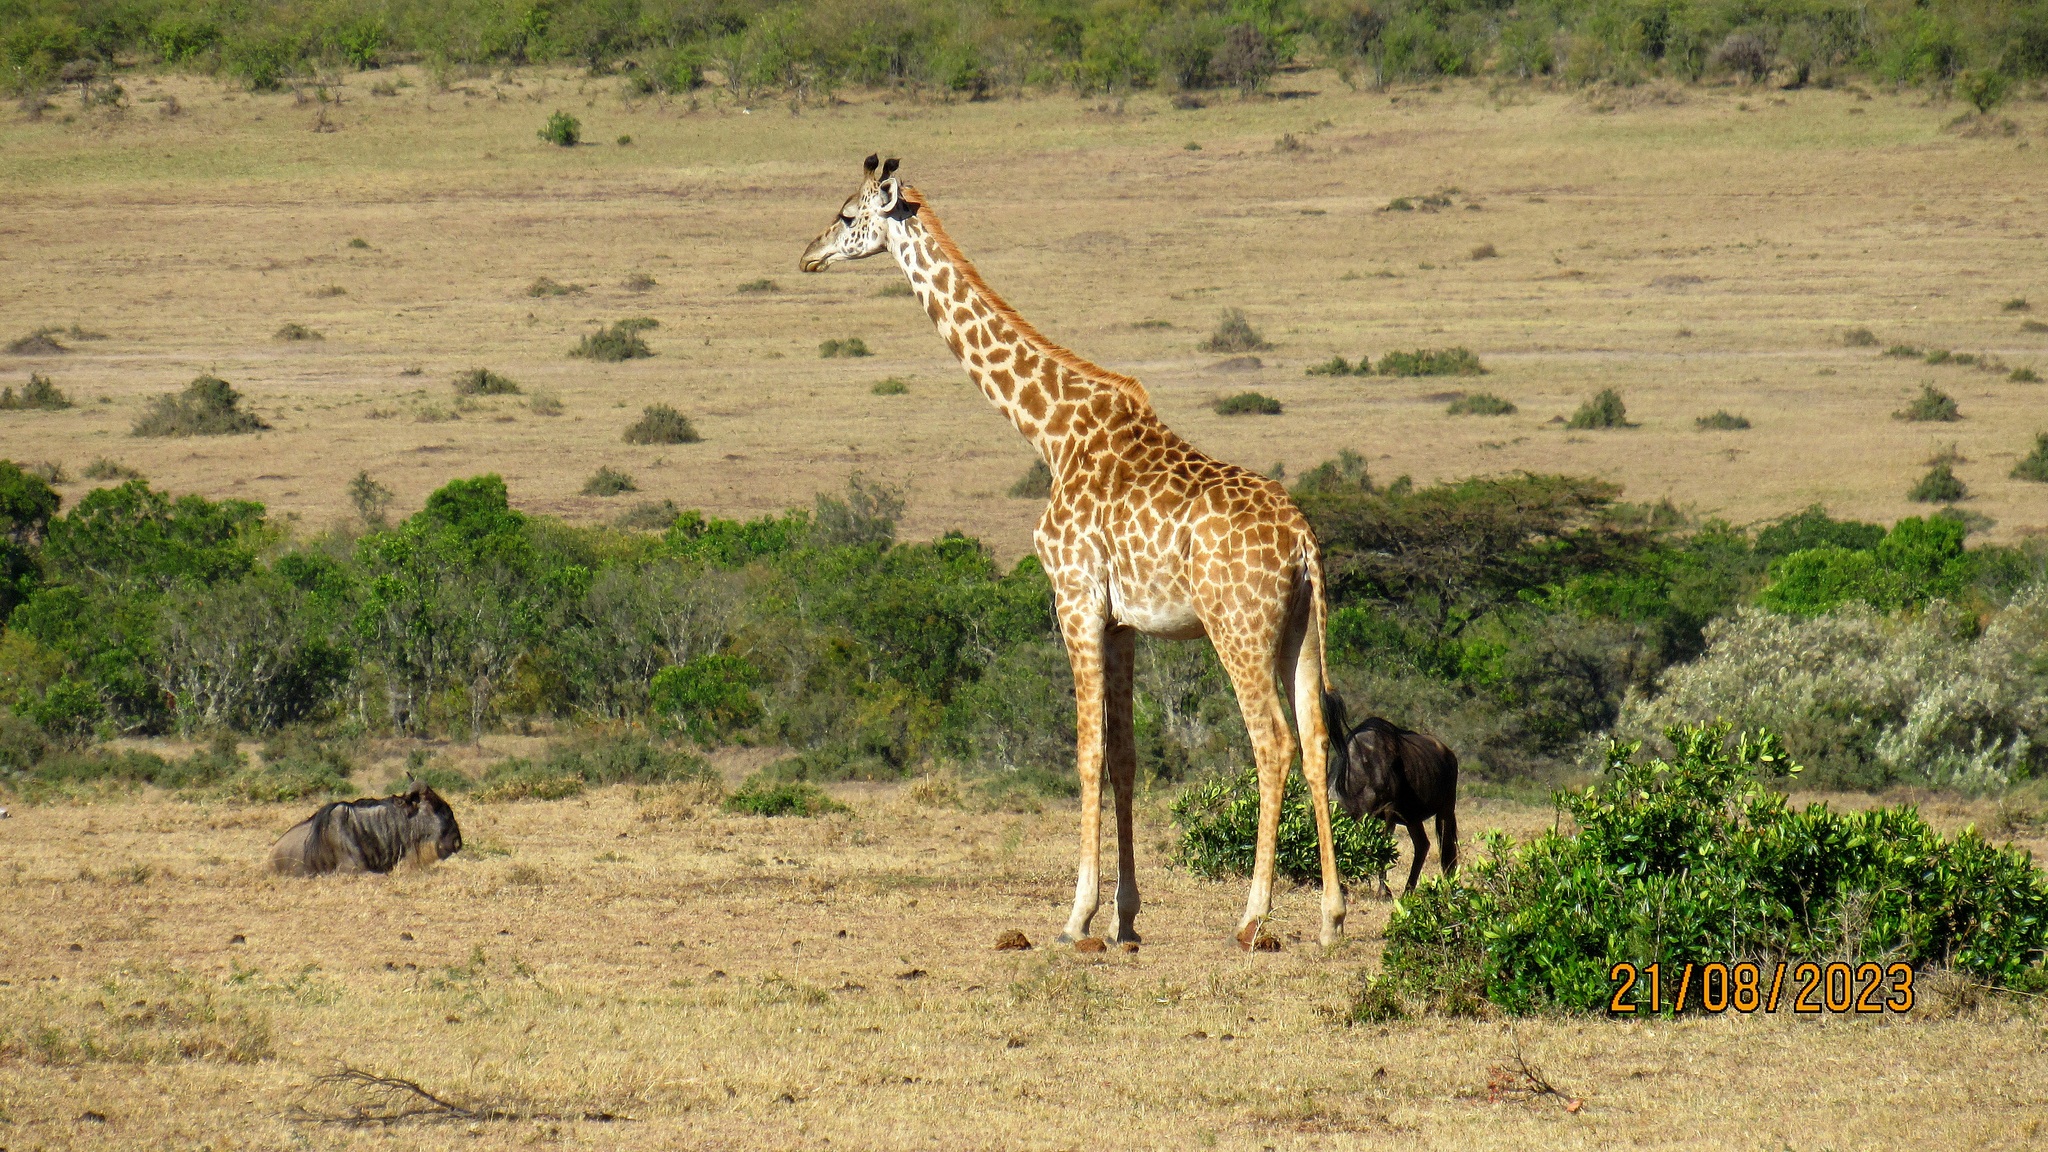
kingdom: Animalia
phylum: Chordata
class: Mammalia
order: Artiodactyla
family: Giraffidae
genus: Giraffa
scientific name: Giraffa tippelskirchi
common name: Masai giraffe
